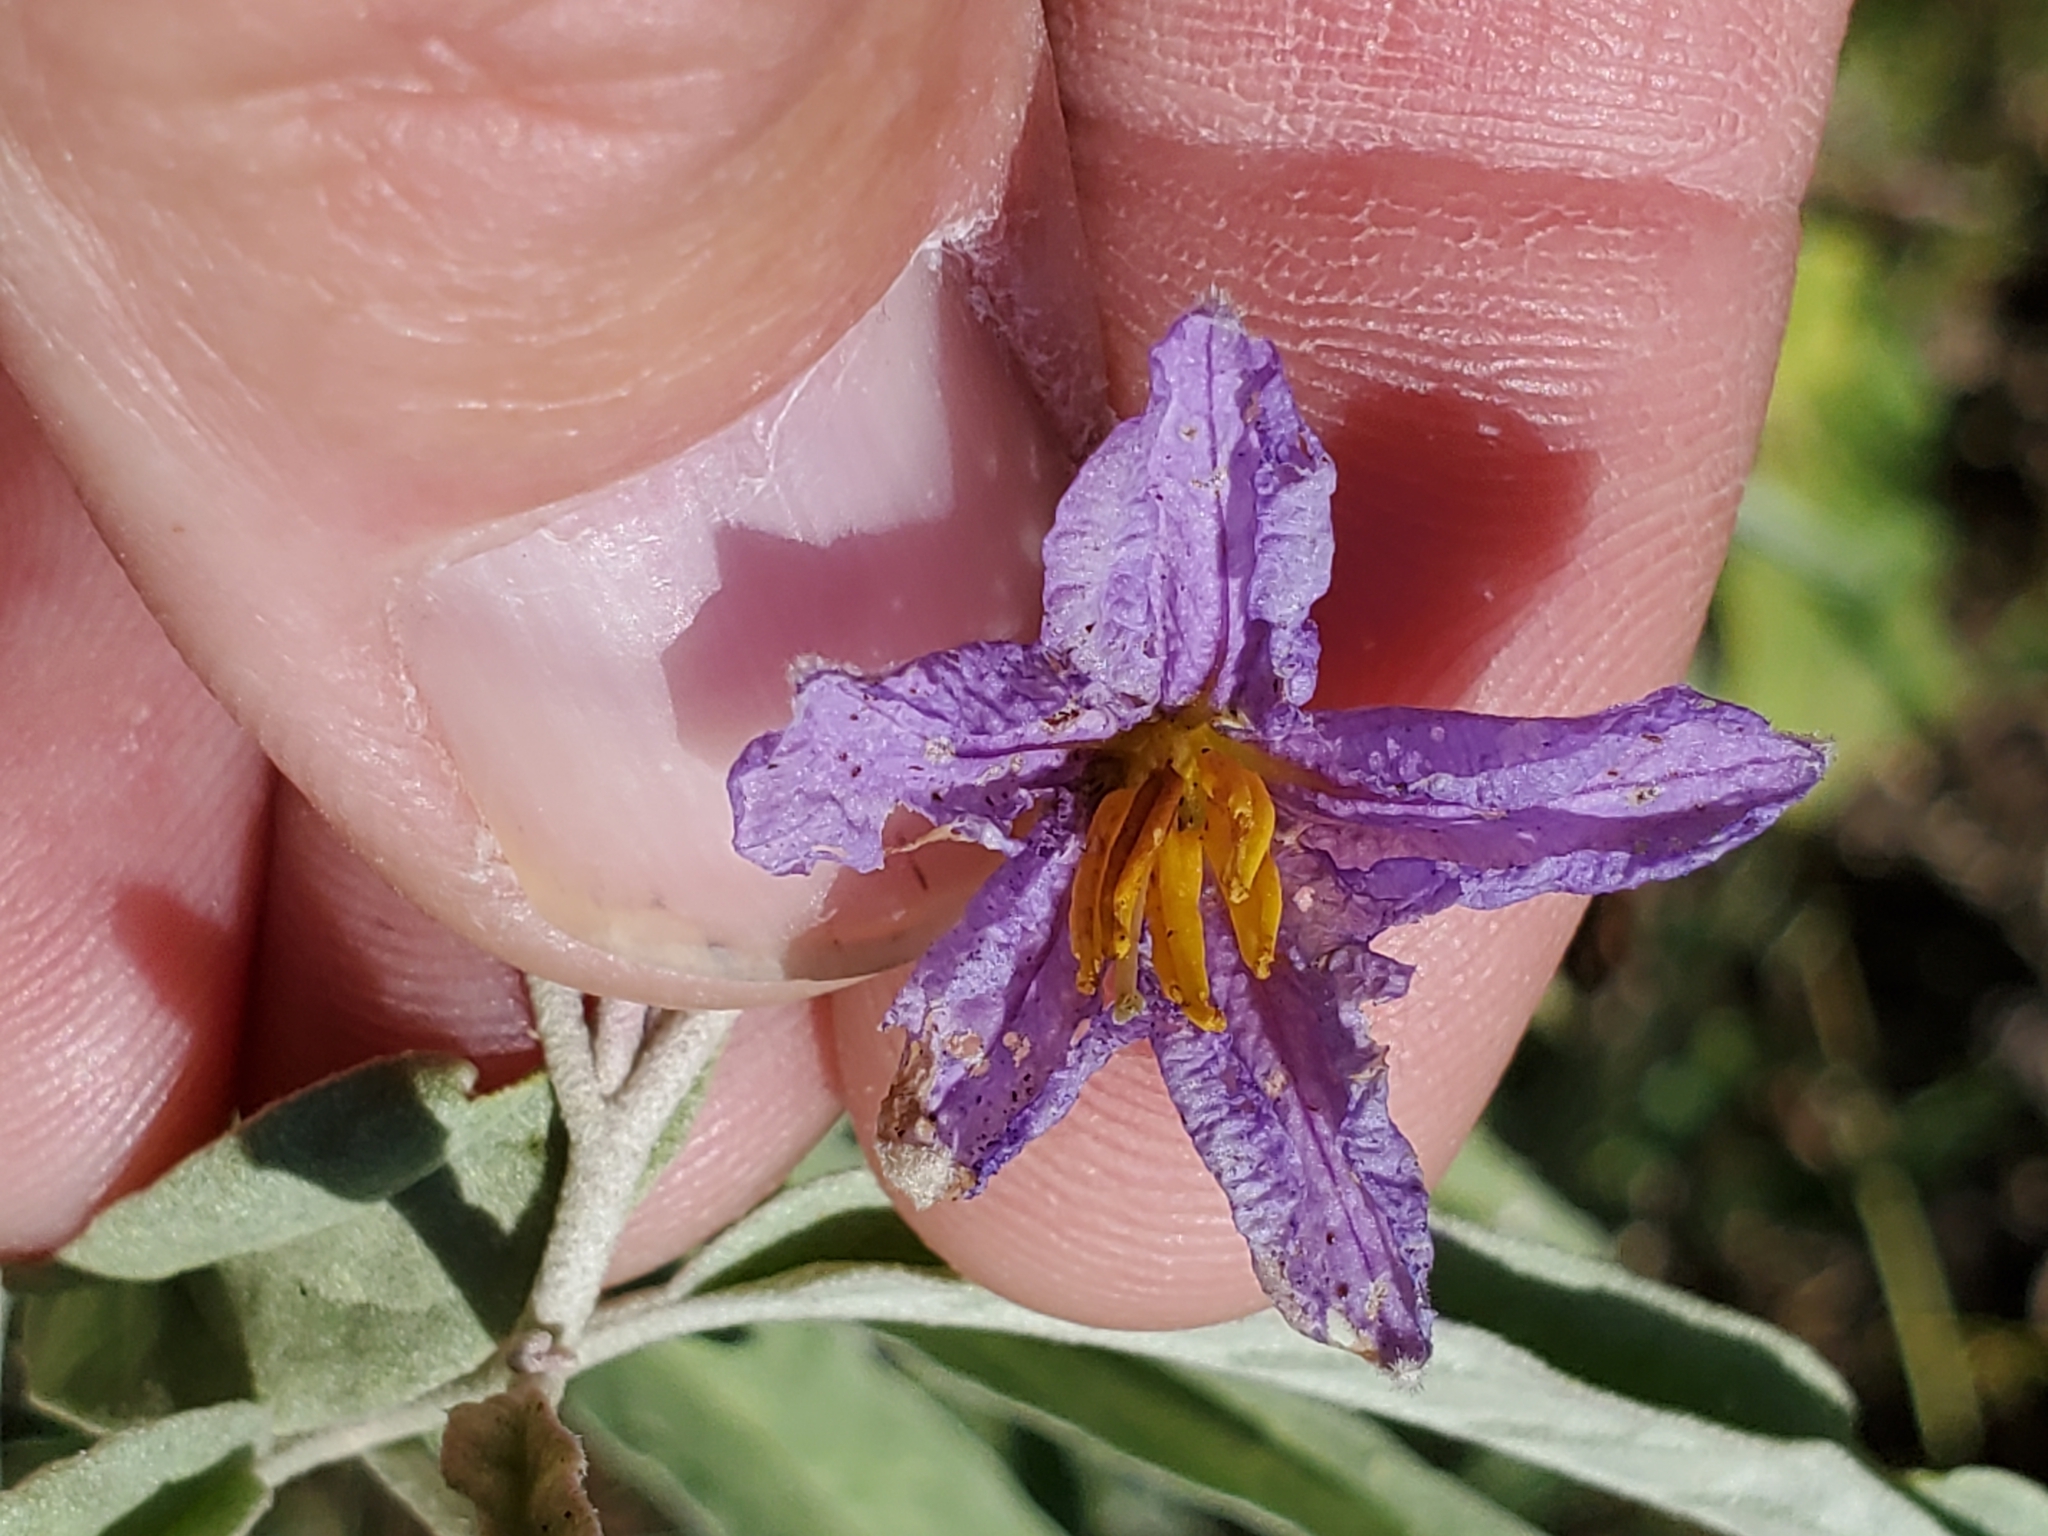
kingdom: Plantae
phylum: Tracheophyta
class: Magnoliopsida
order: Solanales
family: Solanaceae
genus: Solanum
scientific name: Solanum elaeagnifolium
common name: Silverleaf nightshade
